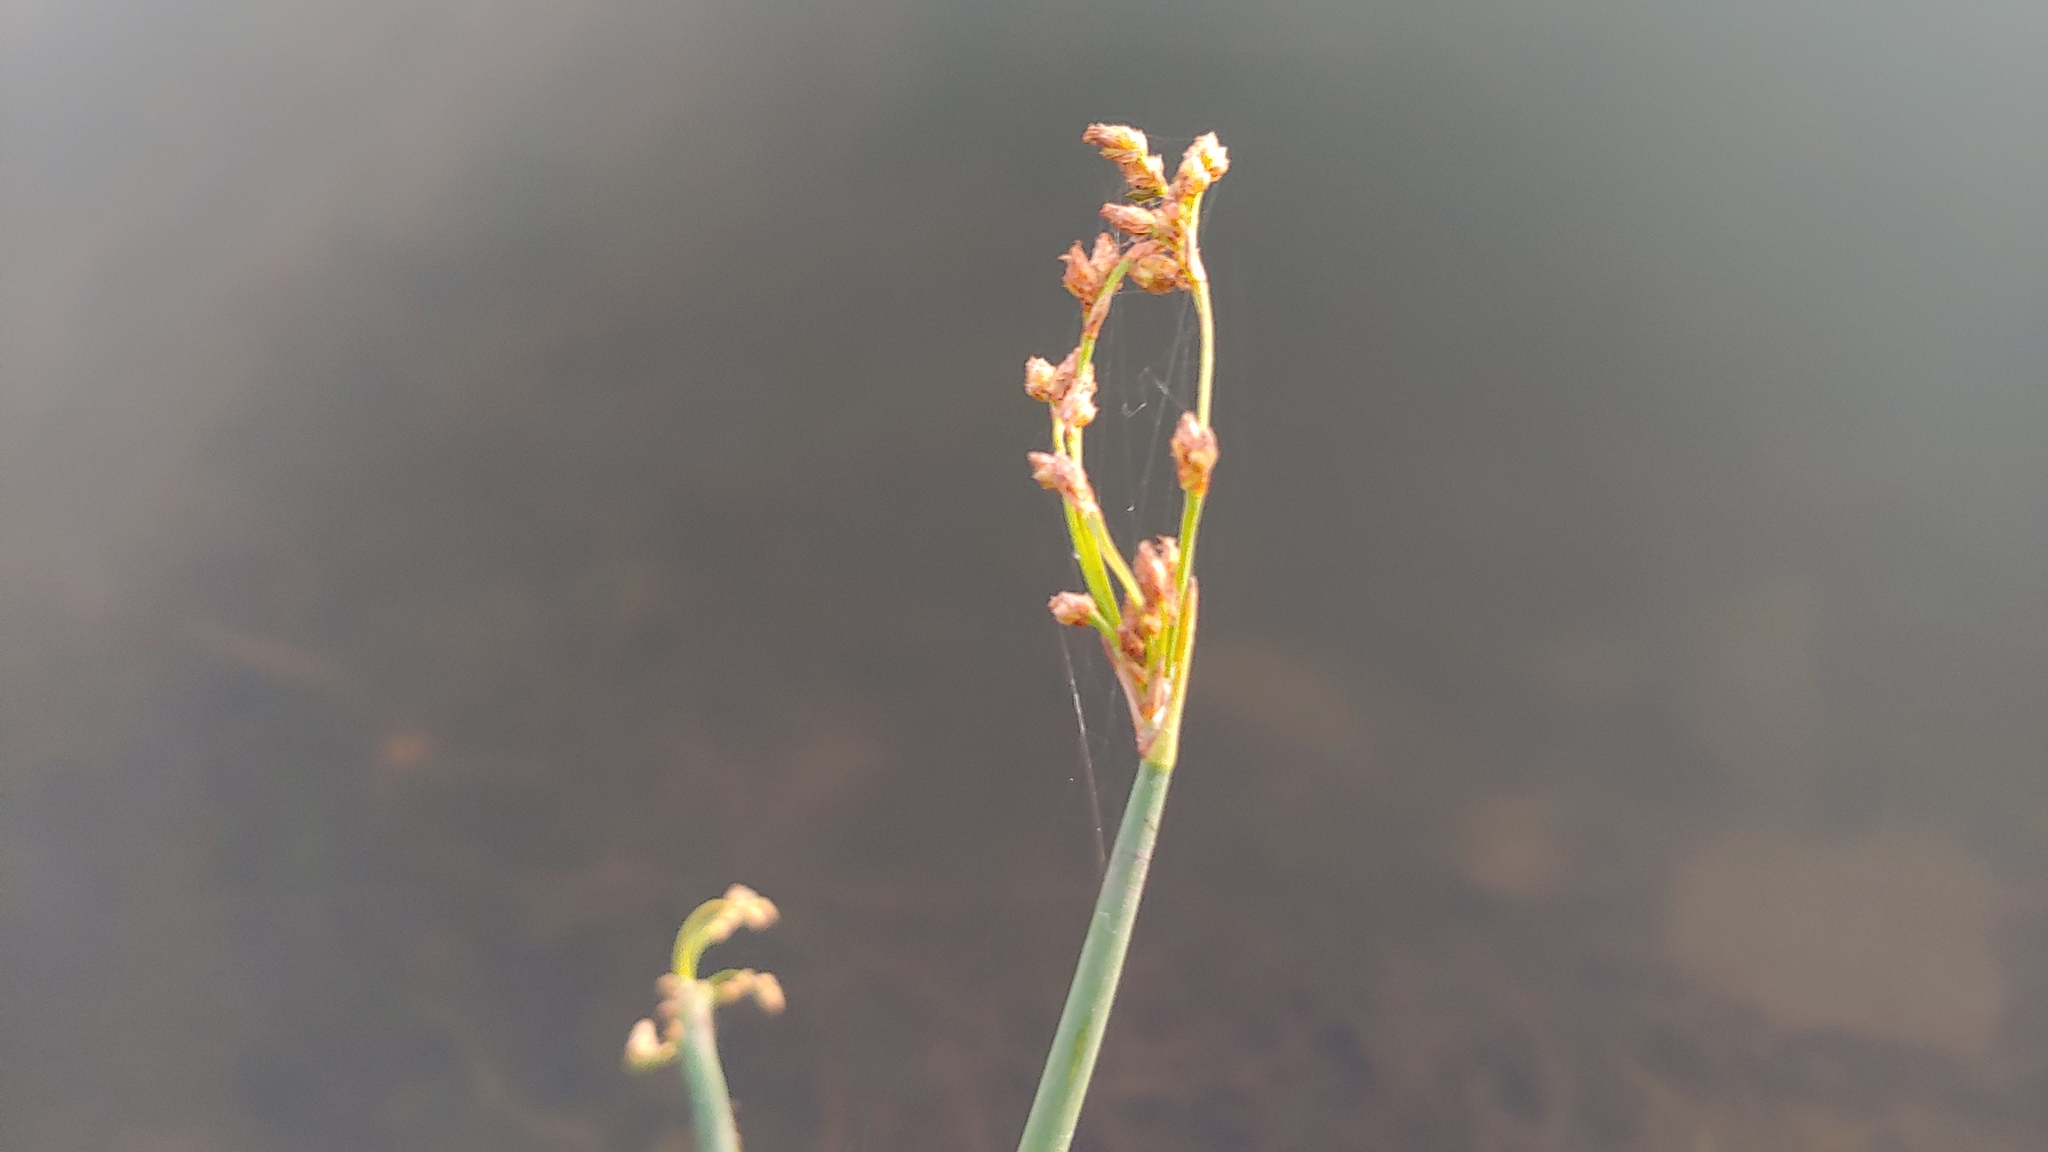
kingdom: Plantae
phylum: Tracheophyta
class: Liliopsida
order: Poales
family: Cyperaceae
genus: Schoenoplectus
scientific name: Schoenoplectus tabernaemontani
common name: Grey club-rush
